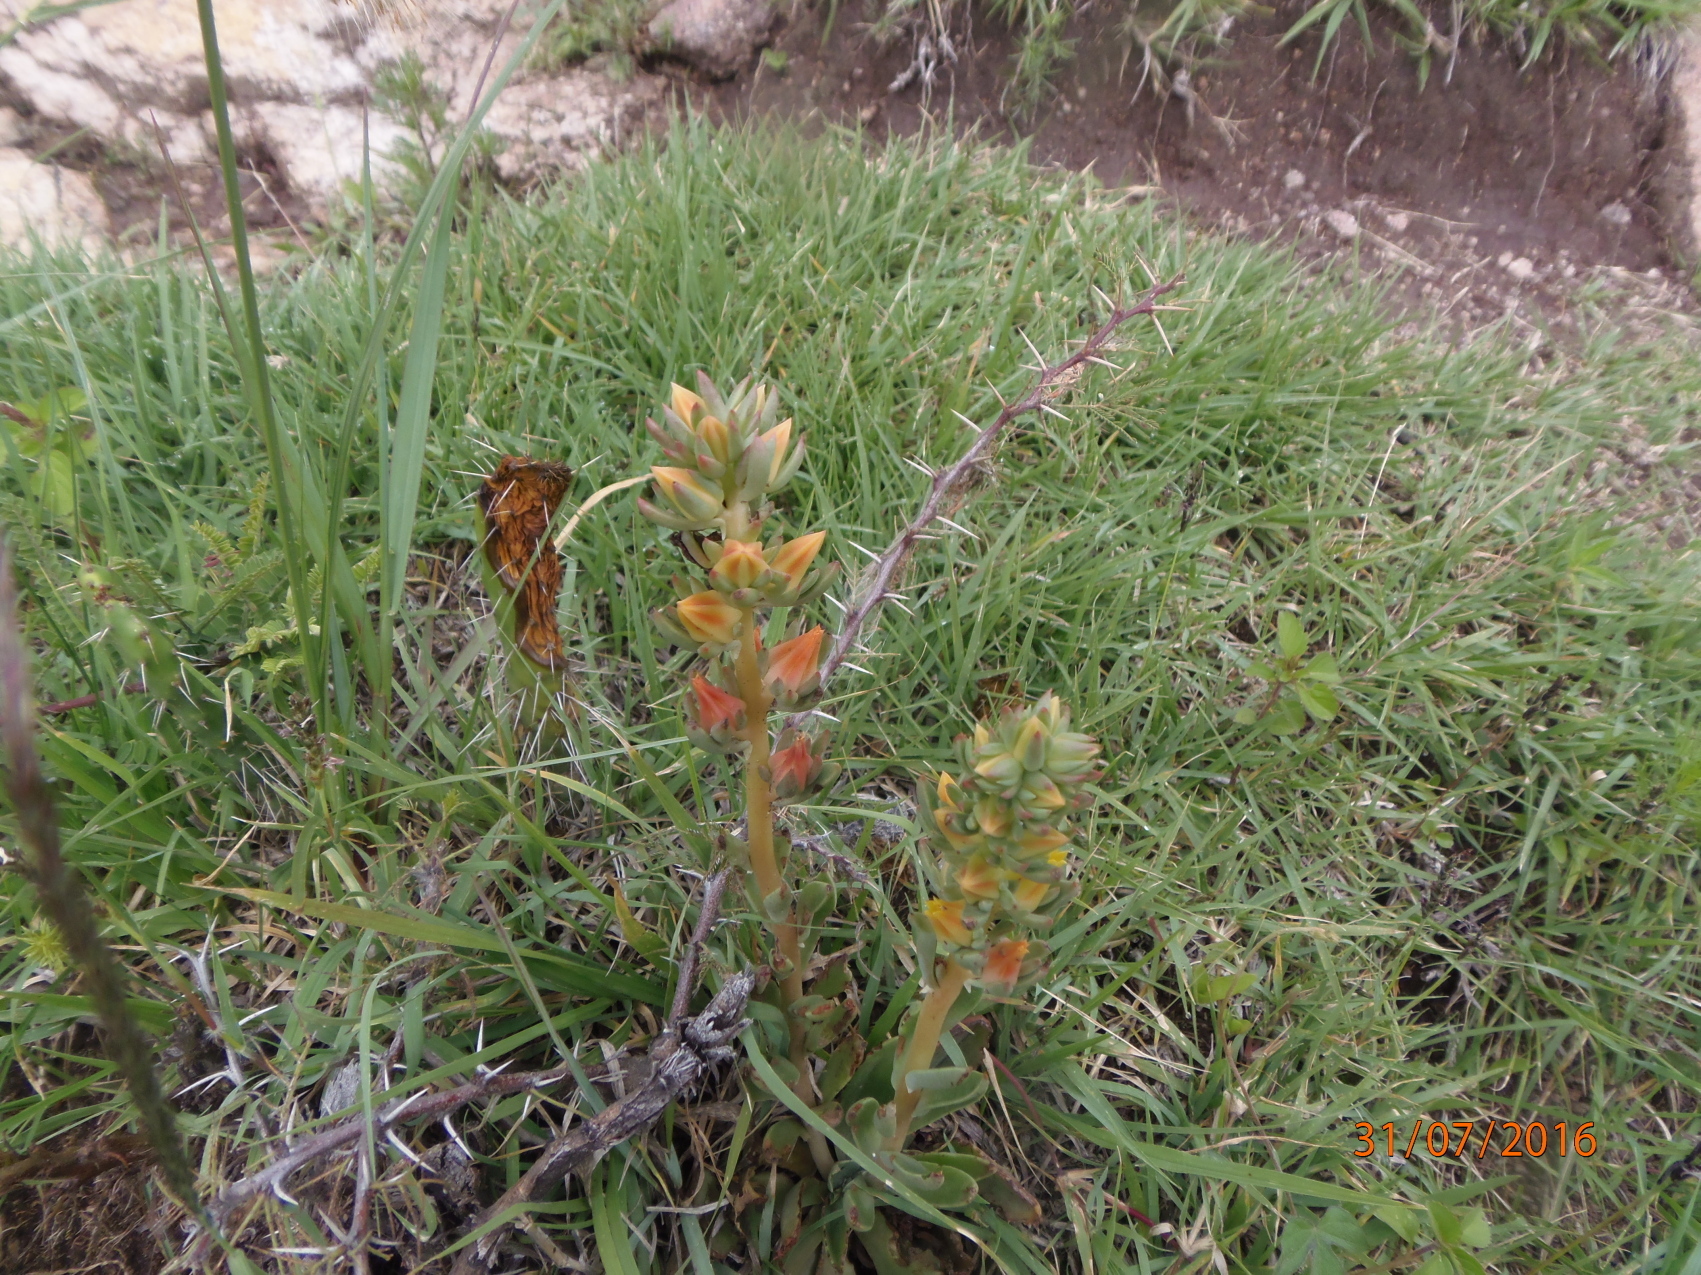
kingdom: Plantae
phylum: Tracheophyta
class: Magnoliopsida
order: Saxifragales
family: Crassulaceae
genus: Echeveria
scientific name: Echeveria mucronata
